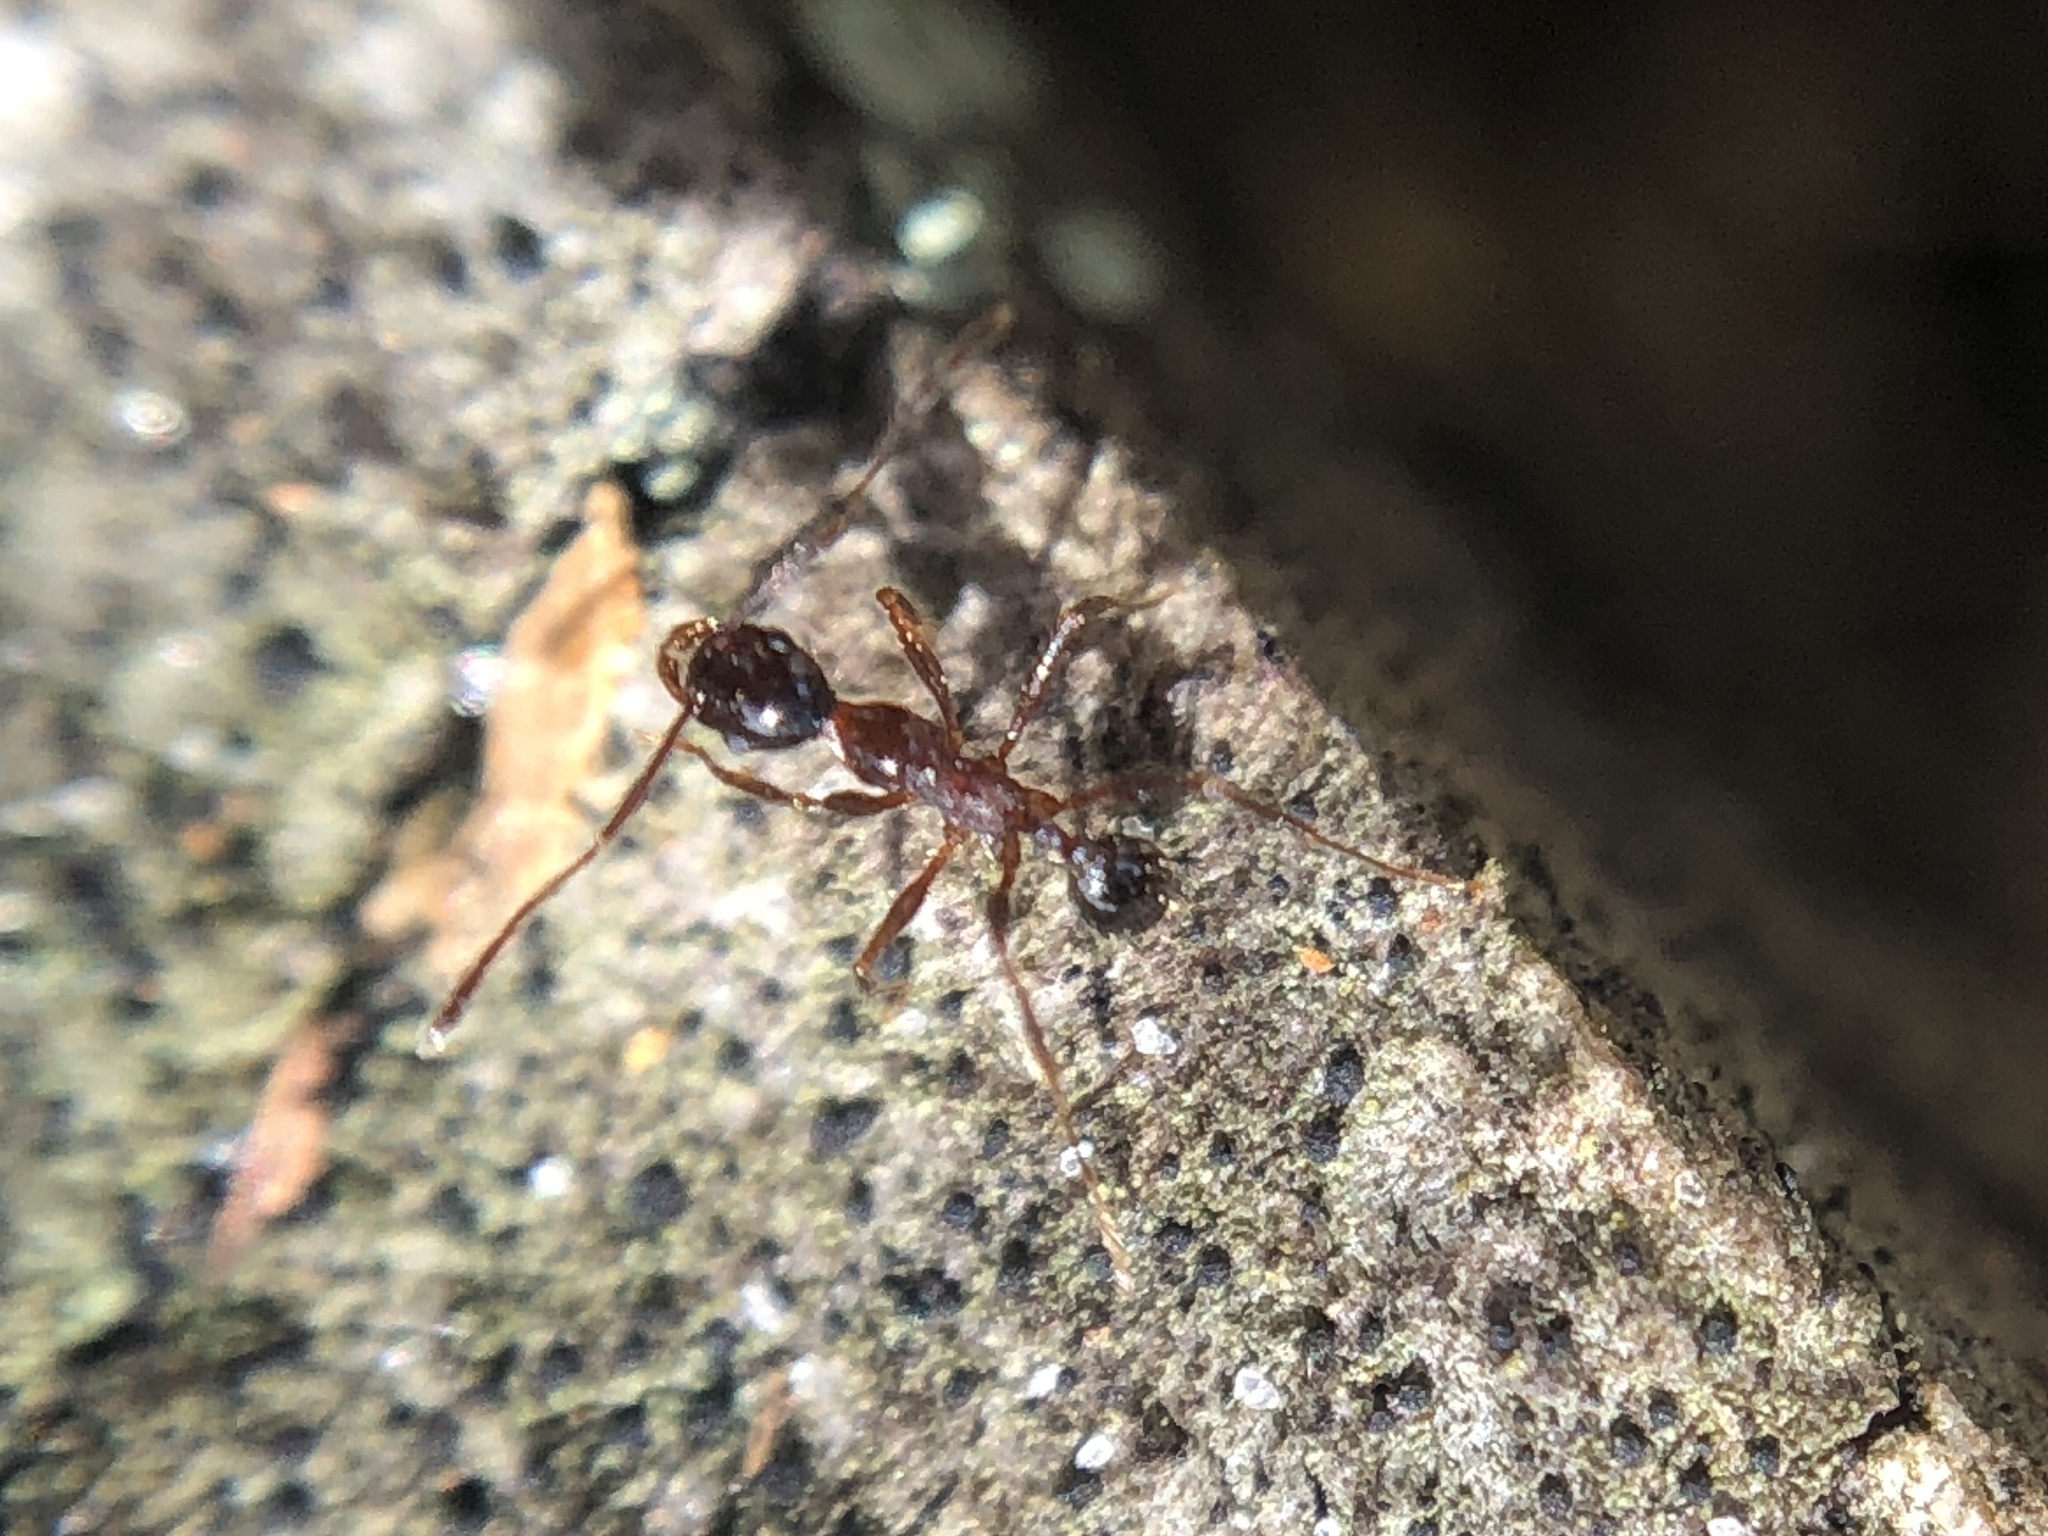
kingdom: Animalia
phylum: Arthropoda
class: Insecta
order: Hymenoptera
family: Formicidae
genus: Pheidole
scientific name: Pheidole obscurithorax
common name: Obscure big-headed ant
